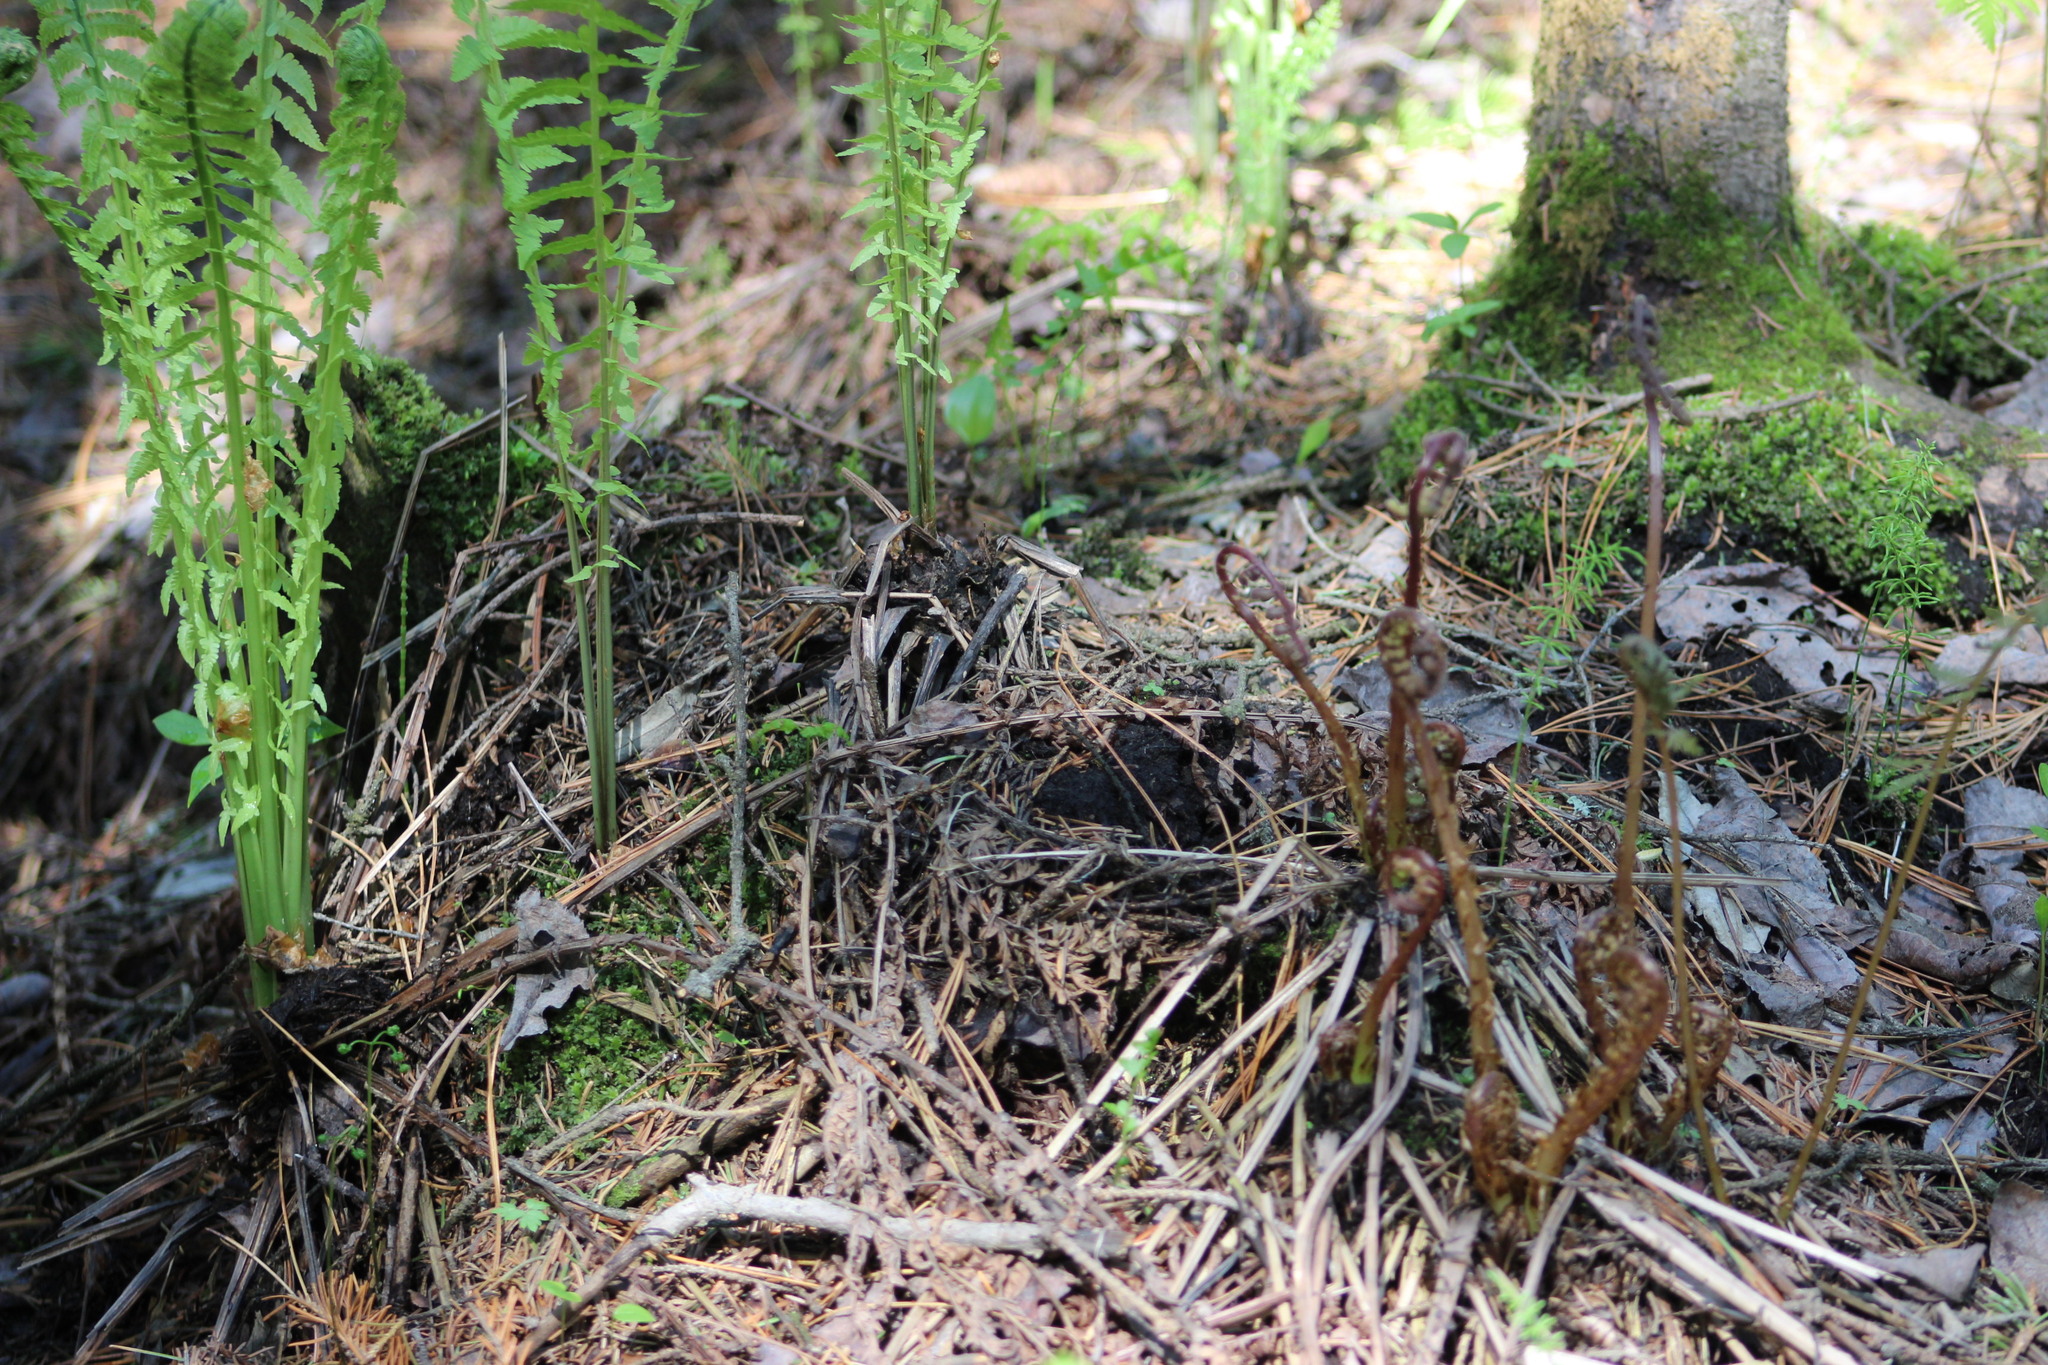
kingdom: Plantae
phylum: Tracheophyta
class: Polypodiopsida
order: Polypodiales
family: Onocleaceae
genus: Matteuccia
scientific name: Matteuccia struthiopteris
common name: Ostrich fern
